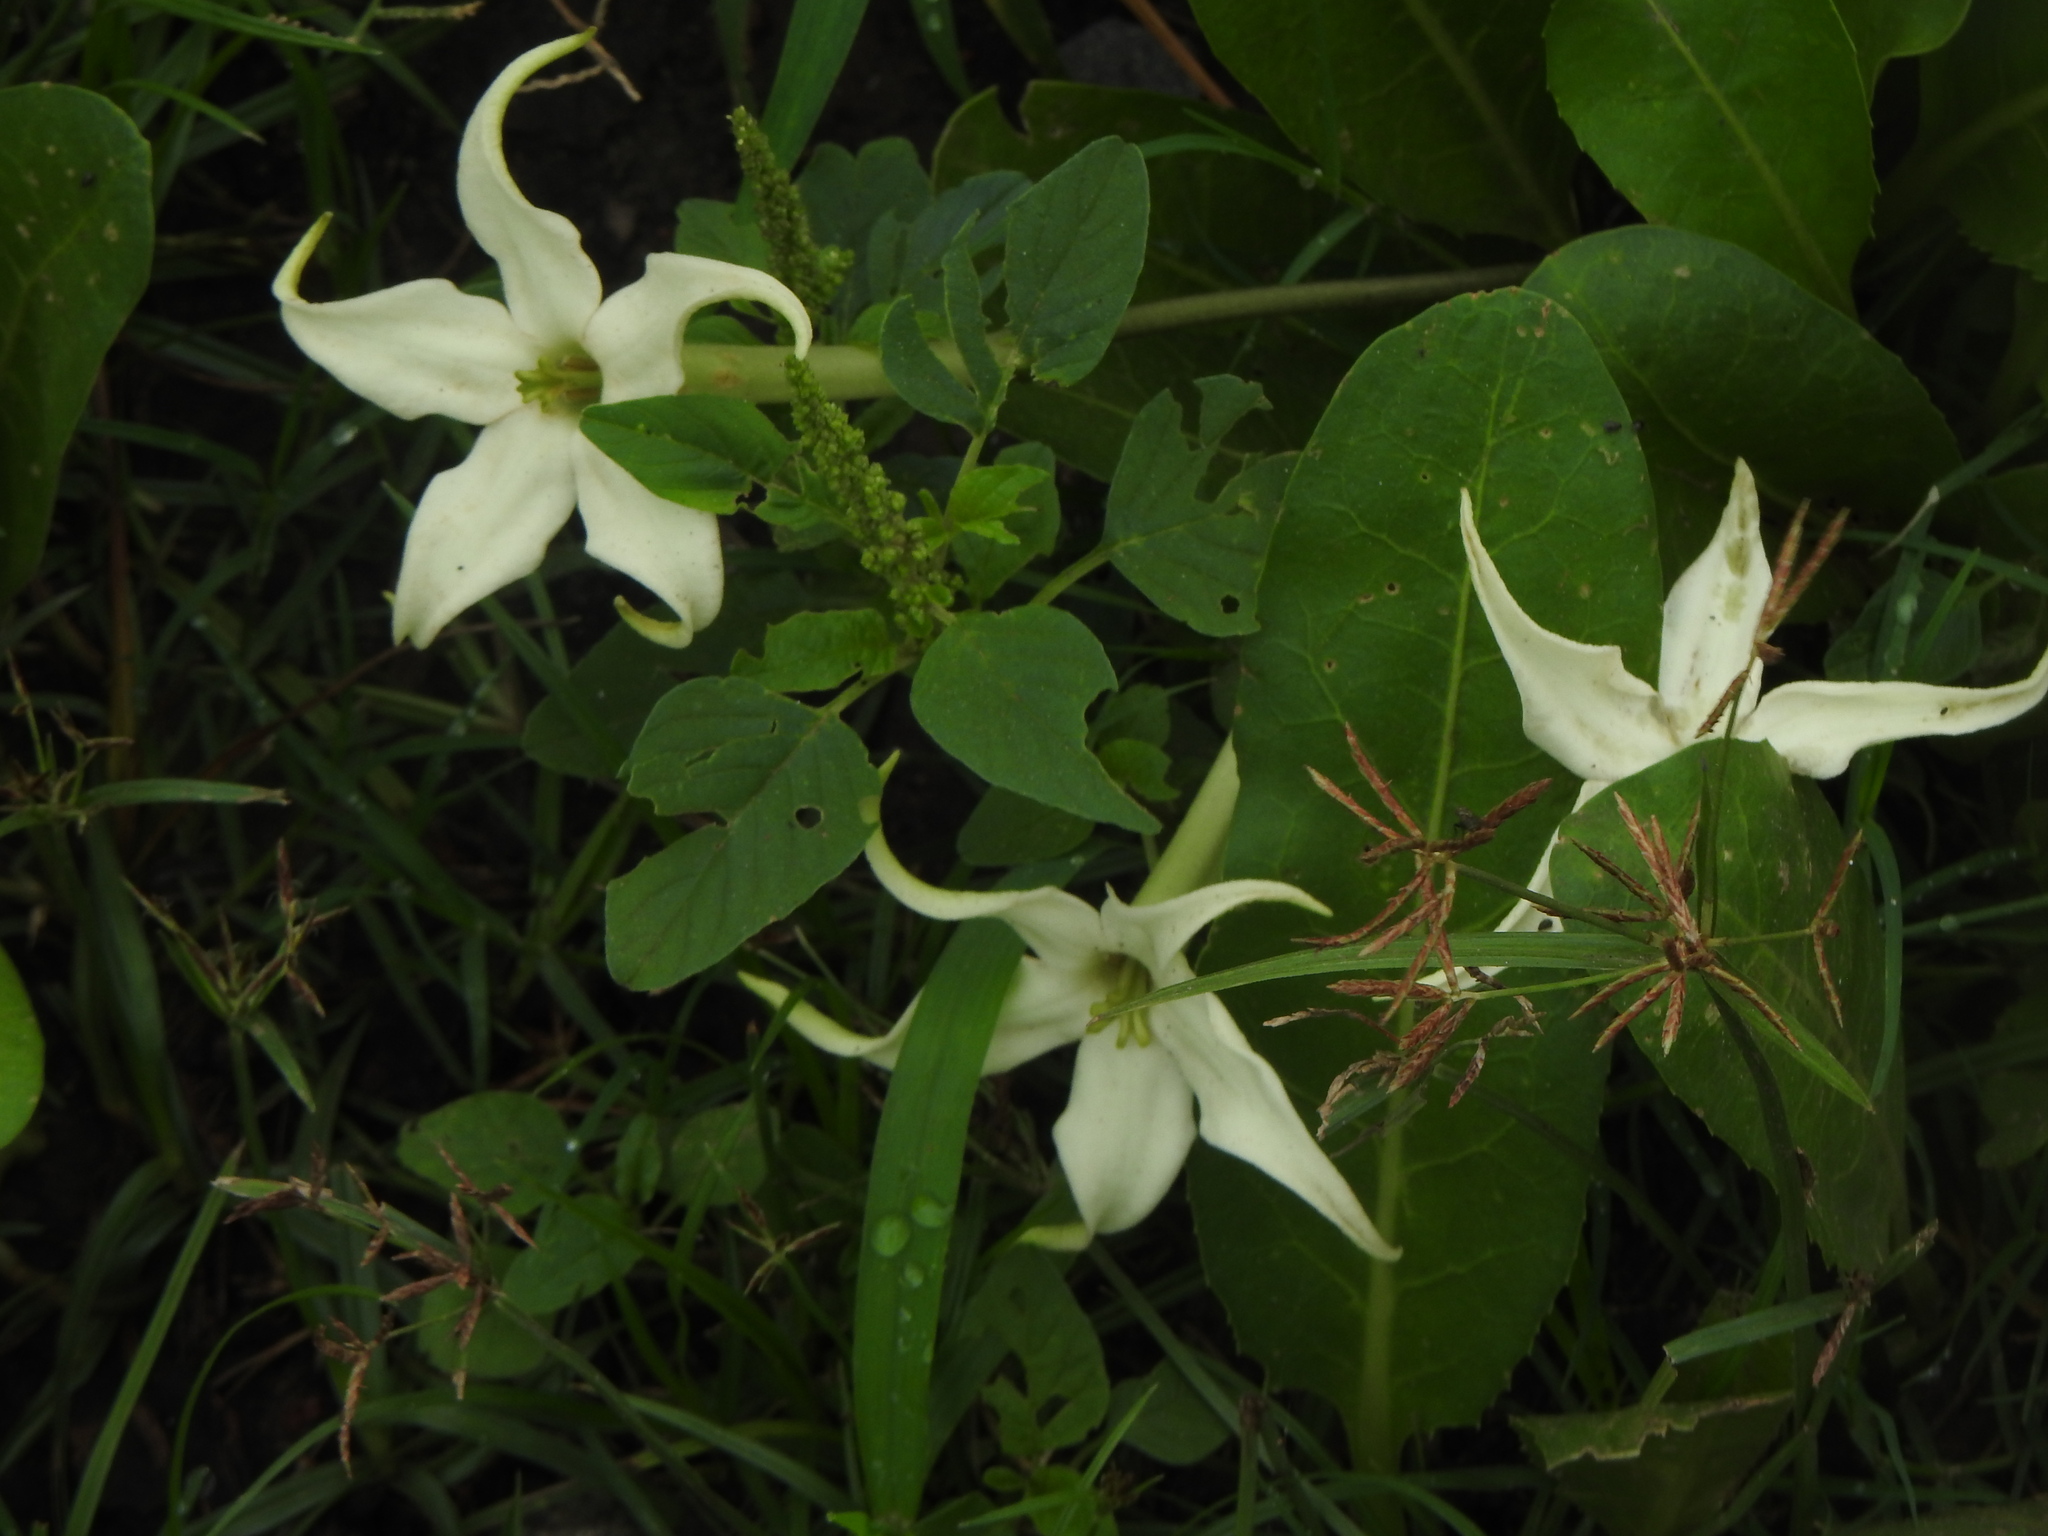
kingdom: Plantae
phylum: Tracheophyta
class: Magnoliopsida
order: Solanales
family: Solanaceae
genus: Jaborosa
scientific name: Jaborosa integrifolia
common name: Springblossom
